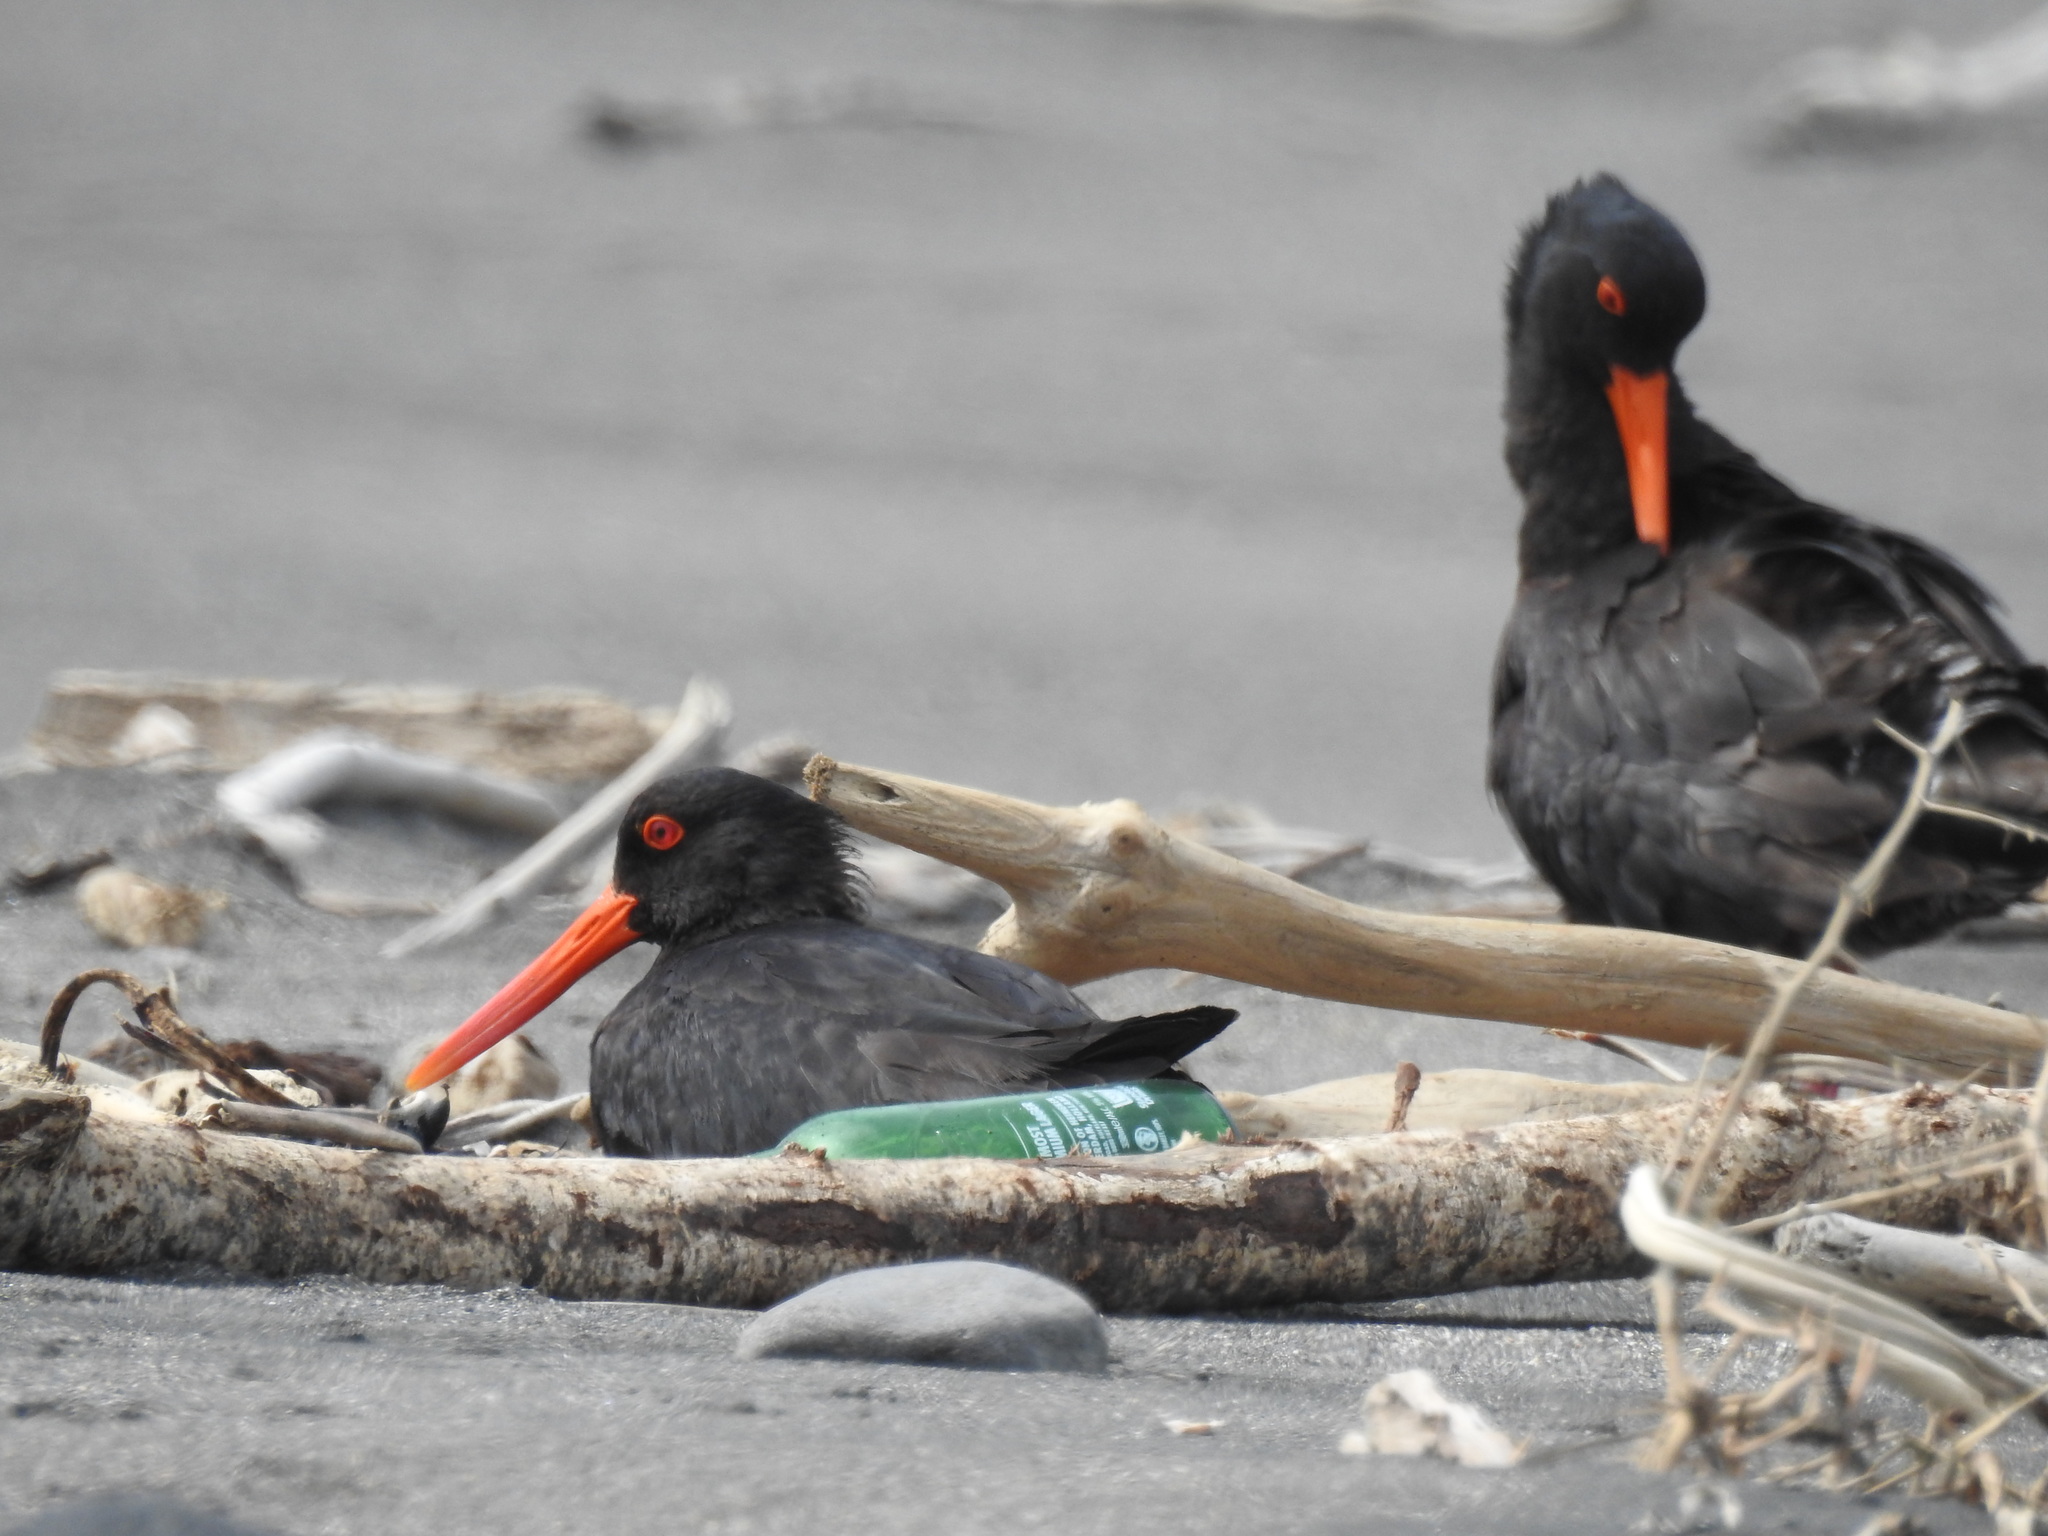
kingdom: Animalia
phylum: Chordata
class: Aves
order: Charadriiformes
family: Haematopodidae
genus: Haematopus
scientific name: Haematopus unicolor
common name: Variable oystercatcher
